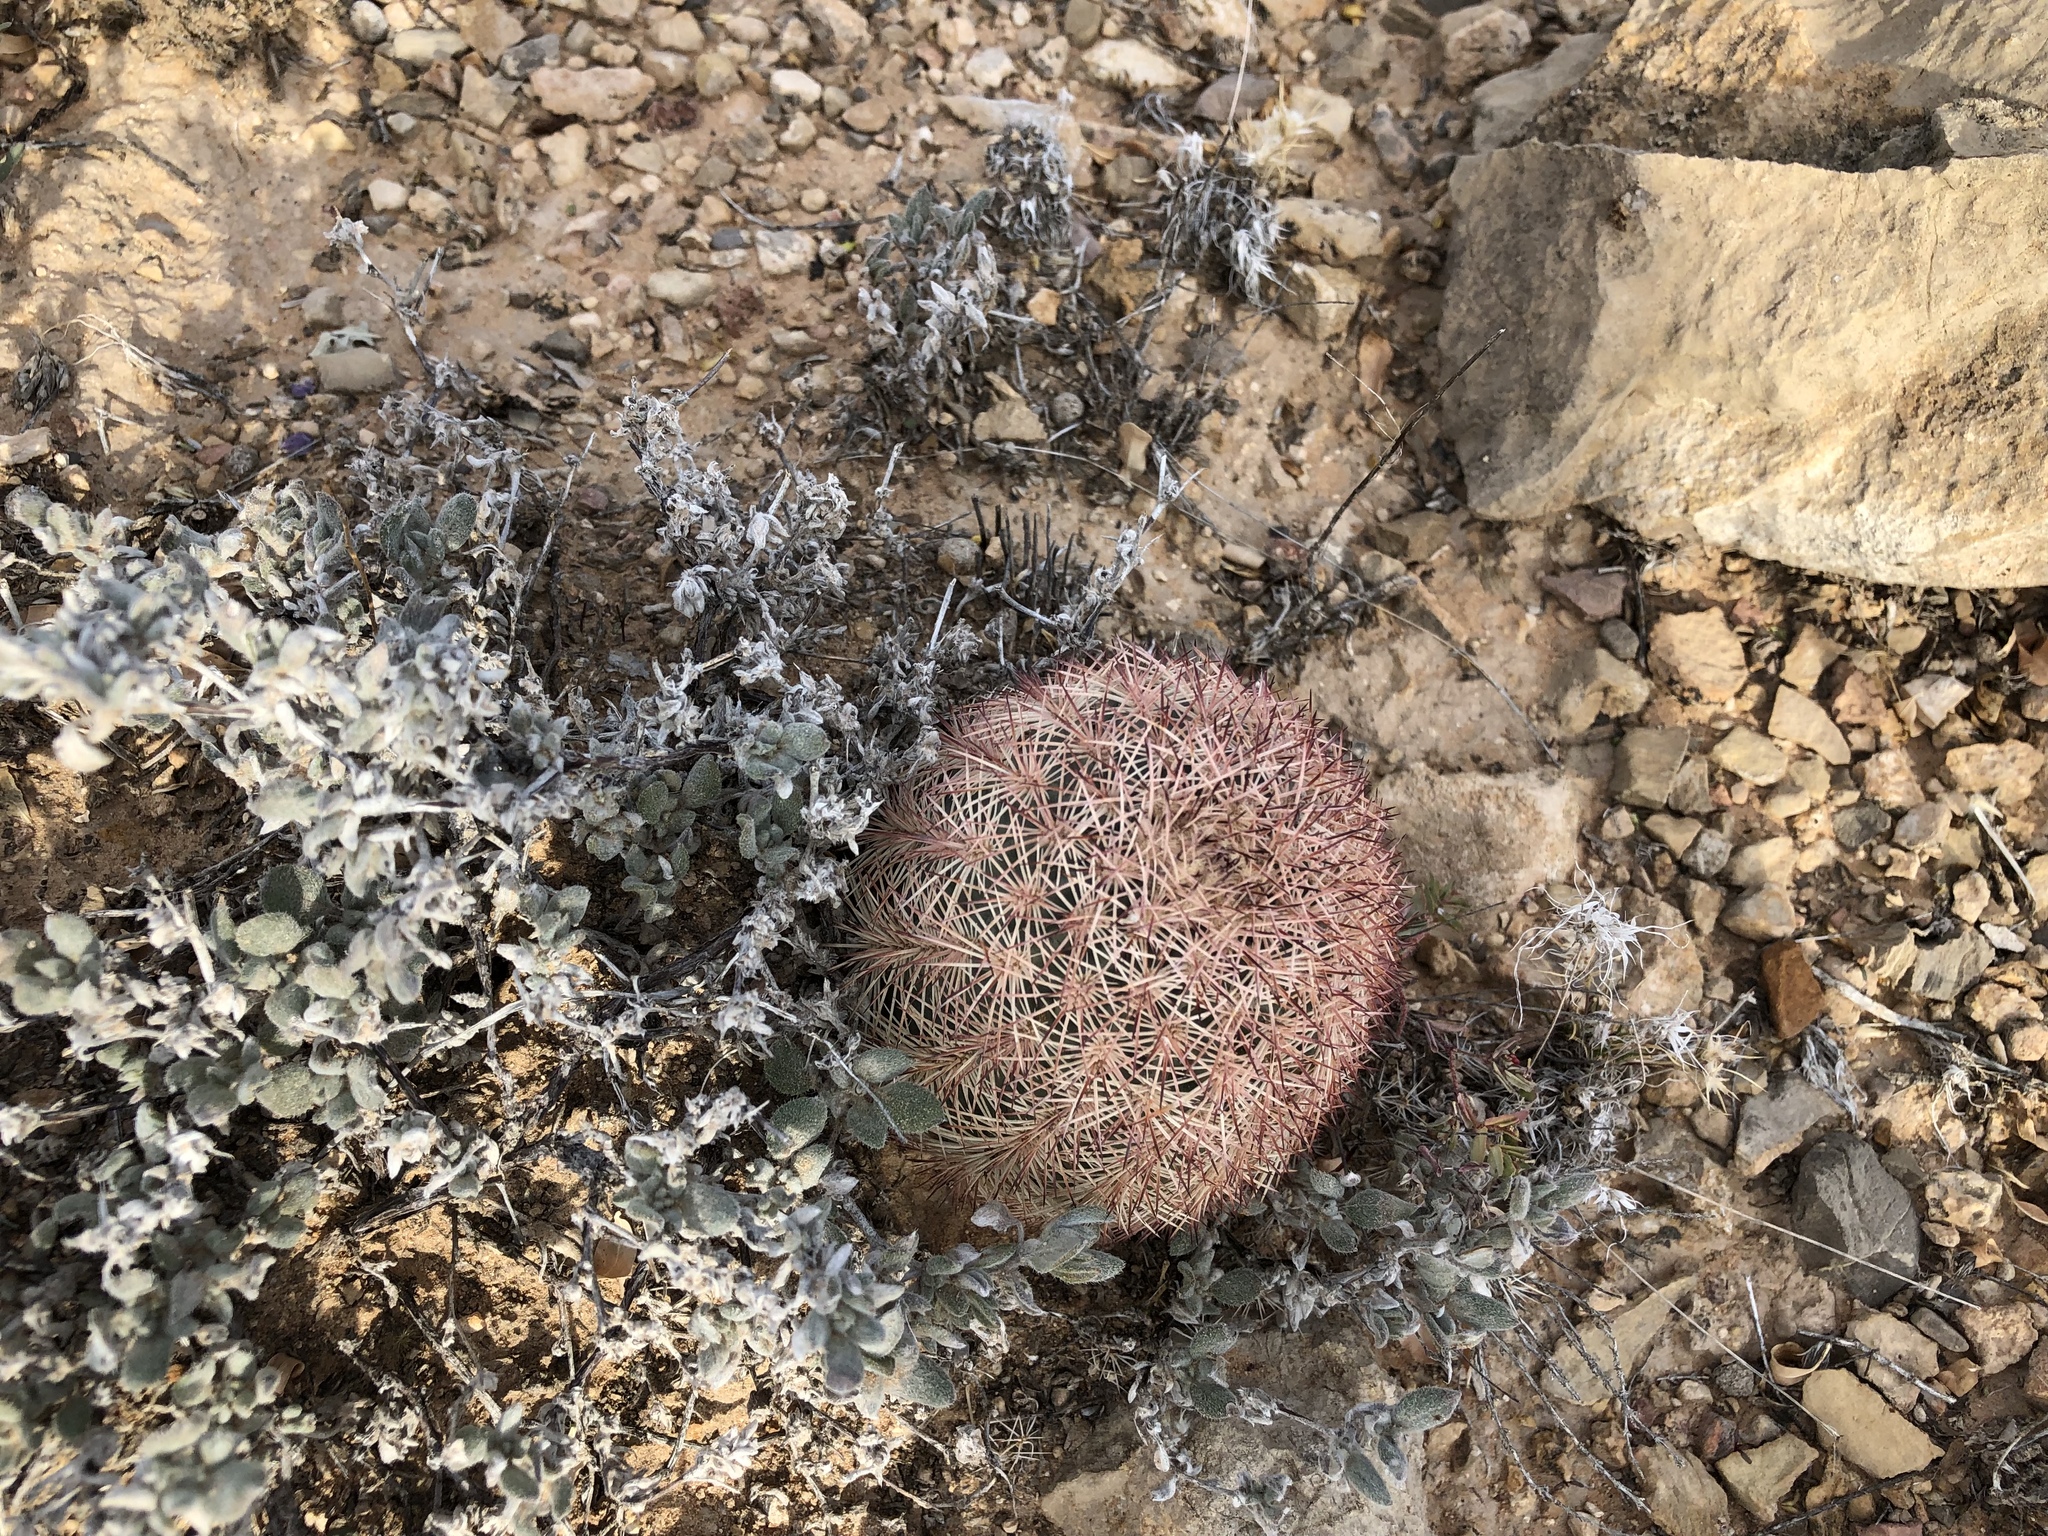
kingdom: Plantae
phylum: Tracheophyta
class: Magnoliopsida
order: Caryophyllales
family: Cactaceae
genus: Echinocereus
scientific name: Echinocereus dasyacanthus
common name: Spiny hedgehog cactus
